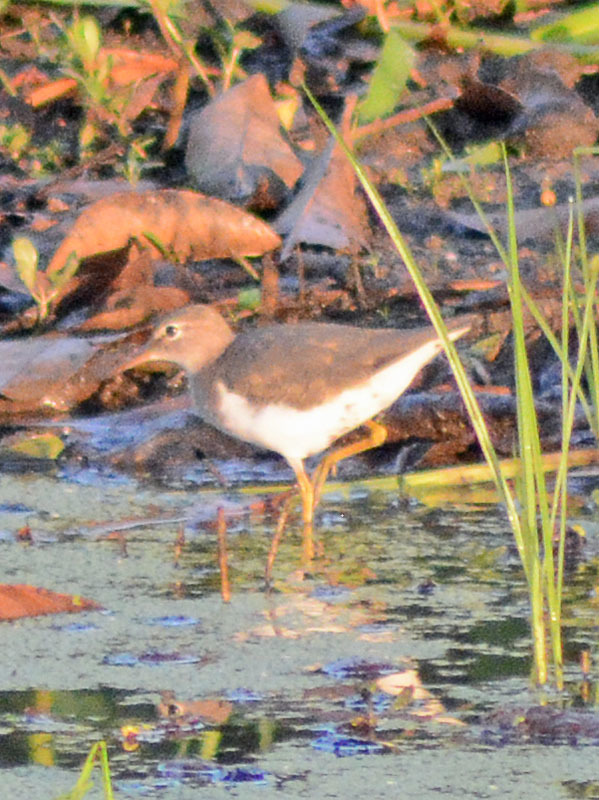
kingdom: Animalia
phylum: Chordata
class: Aves
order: Charadriiformes
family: Scolopacidae
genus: Actitis
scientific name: Actitis macularius
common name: Spotted sandpiper
